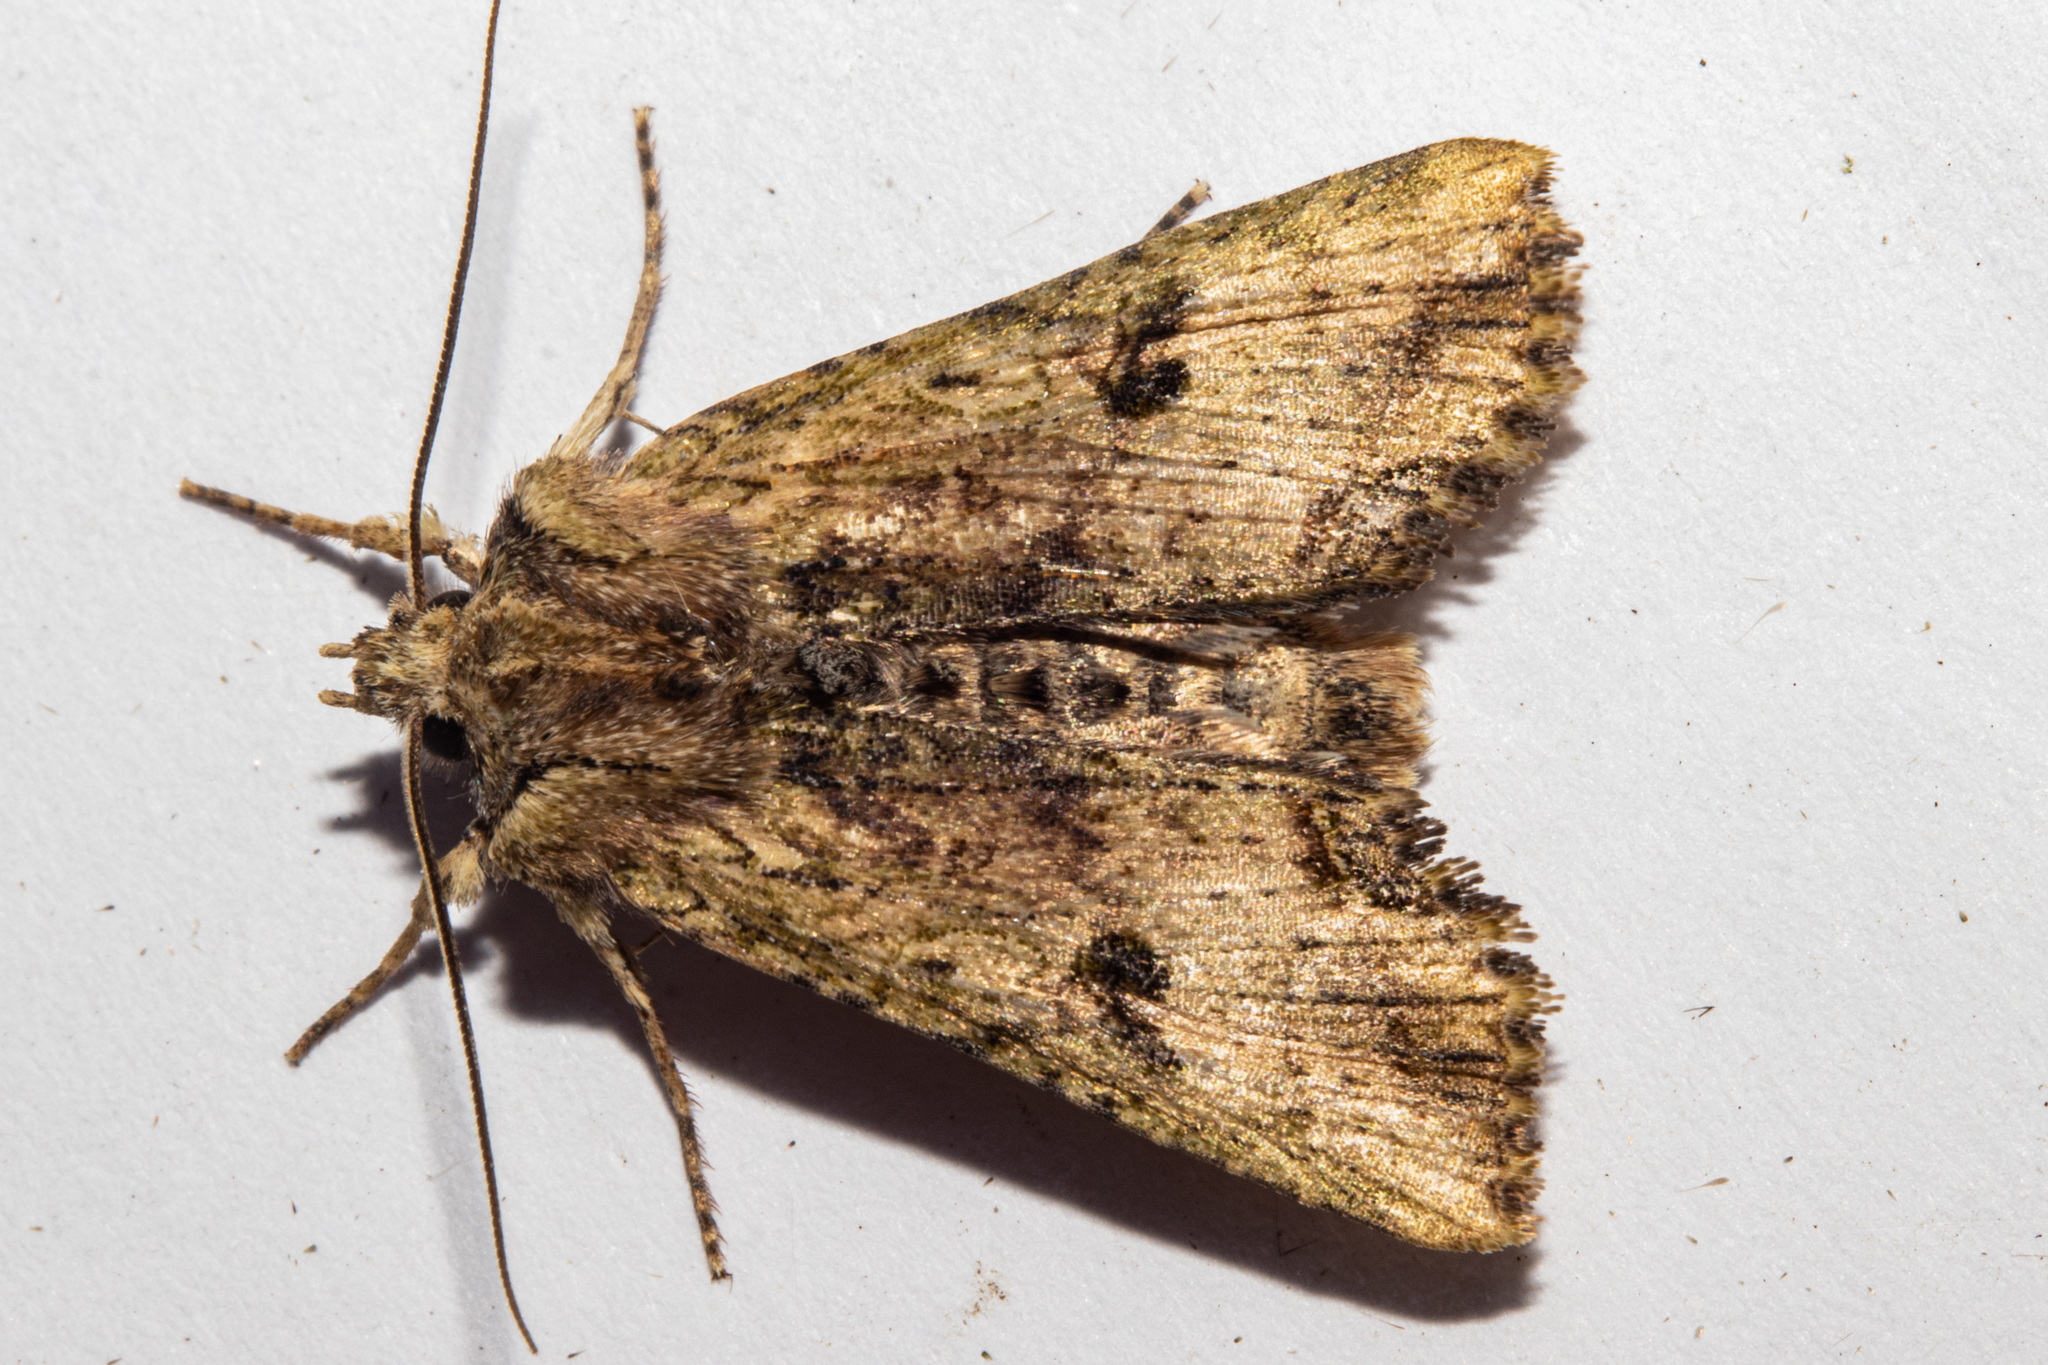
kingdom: Animalia
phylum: Arthropoda
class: Insecta
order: Lepidoptera
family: Noctuidae
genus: Meterana
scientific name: Meterana coeleno
